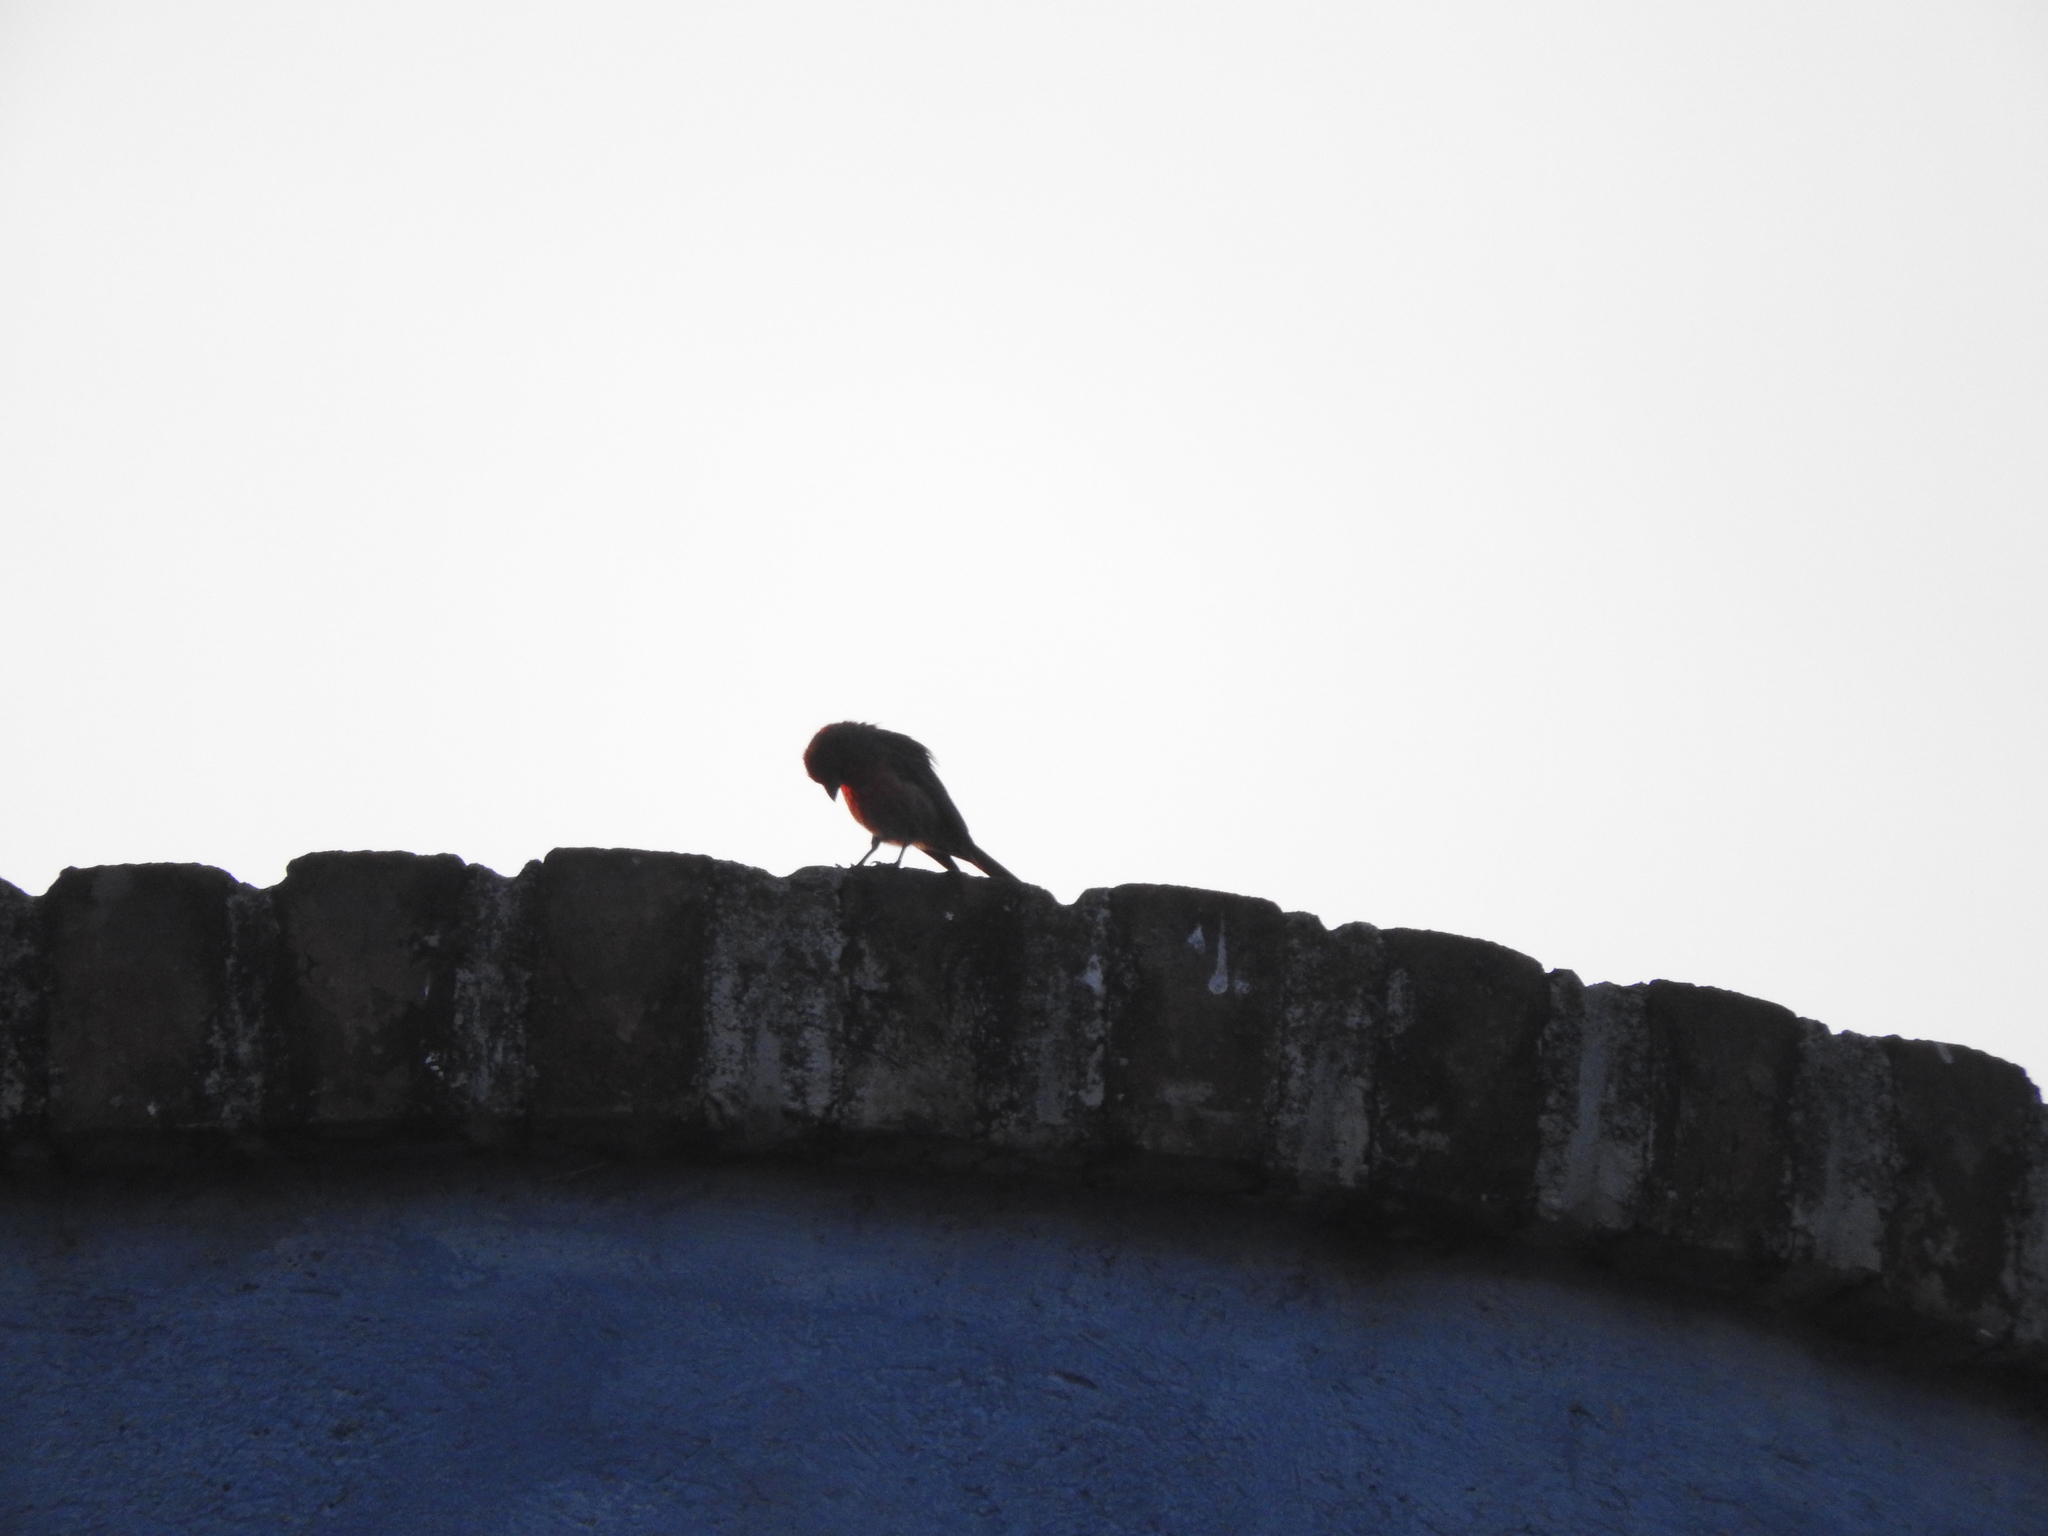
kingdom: Animalia
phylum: Chordata
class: Aves
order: Passeriformes
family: Fringillidae
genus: Haemorhous
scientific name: Haemorhous mexicanus
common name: House finch
